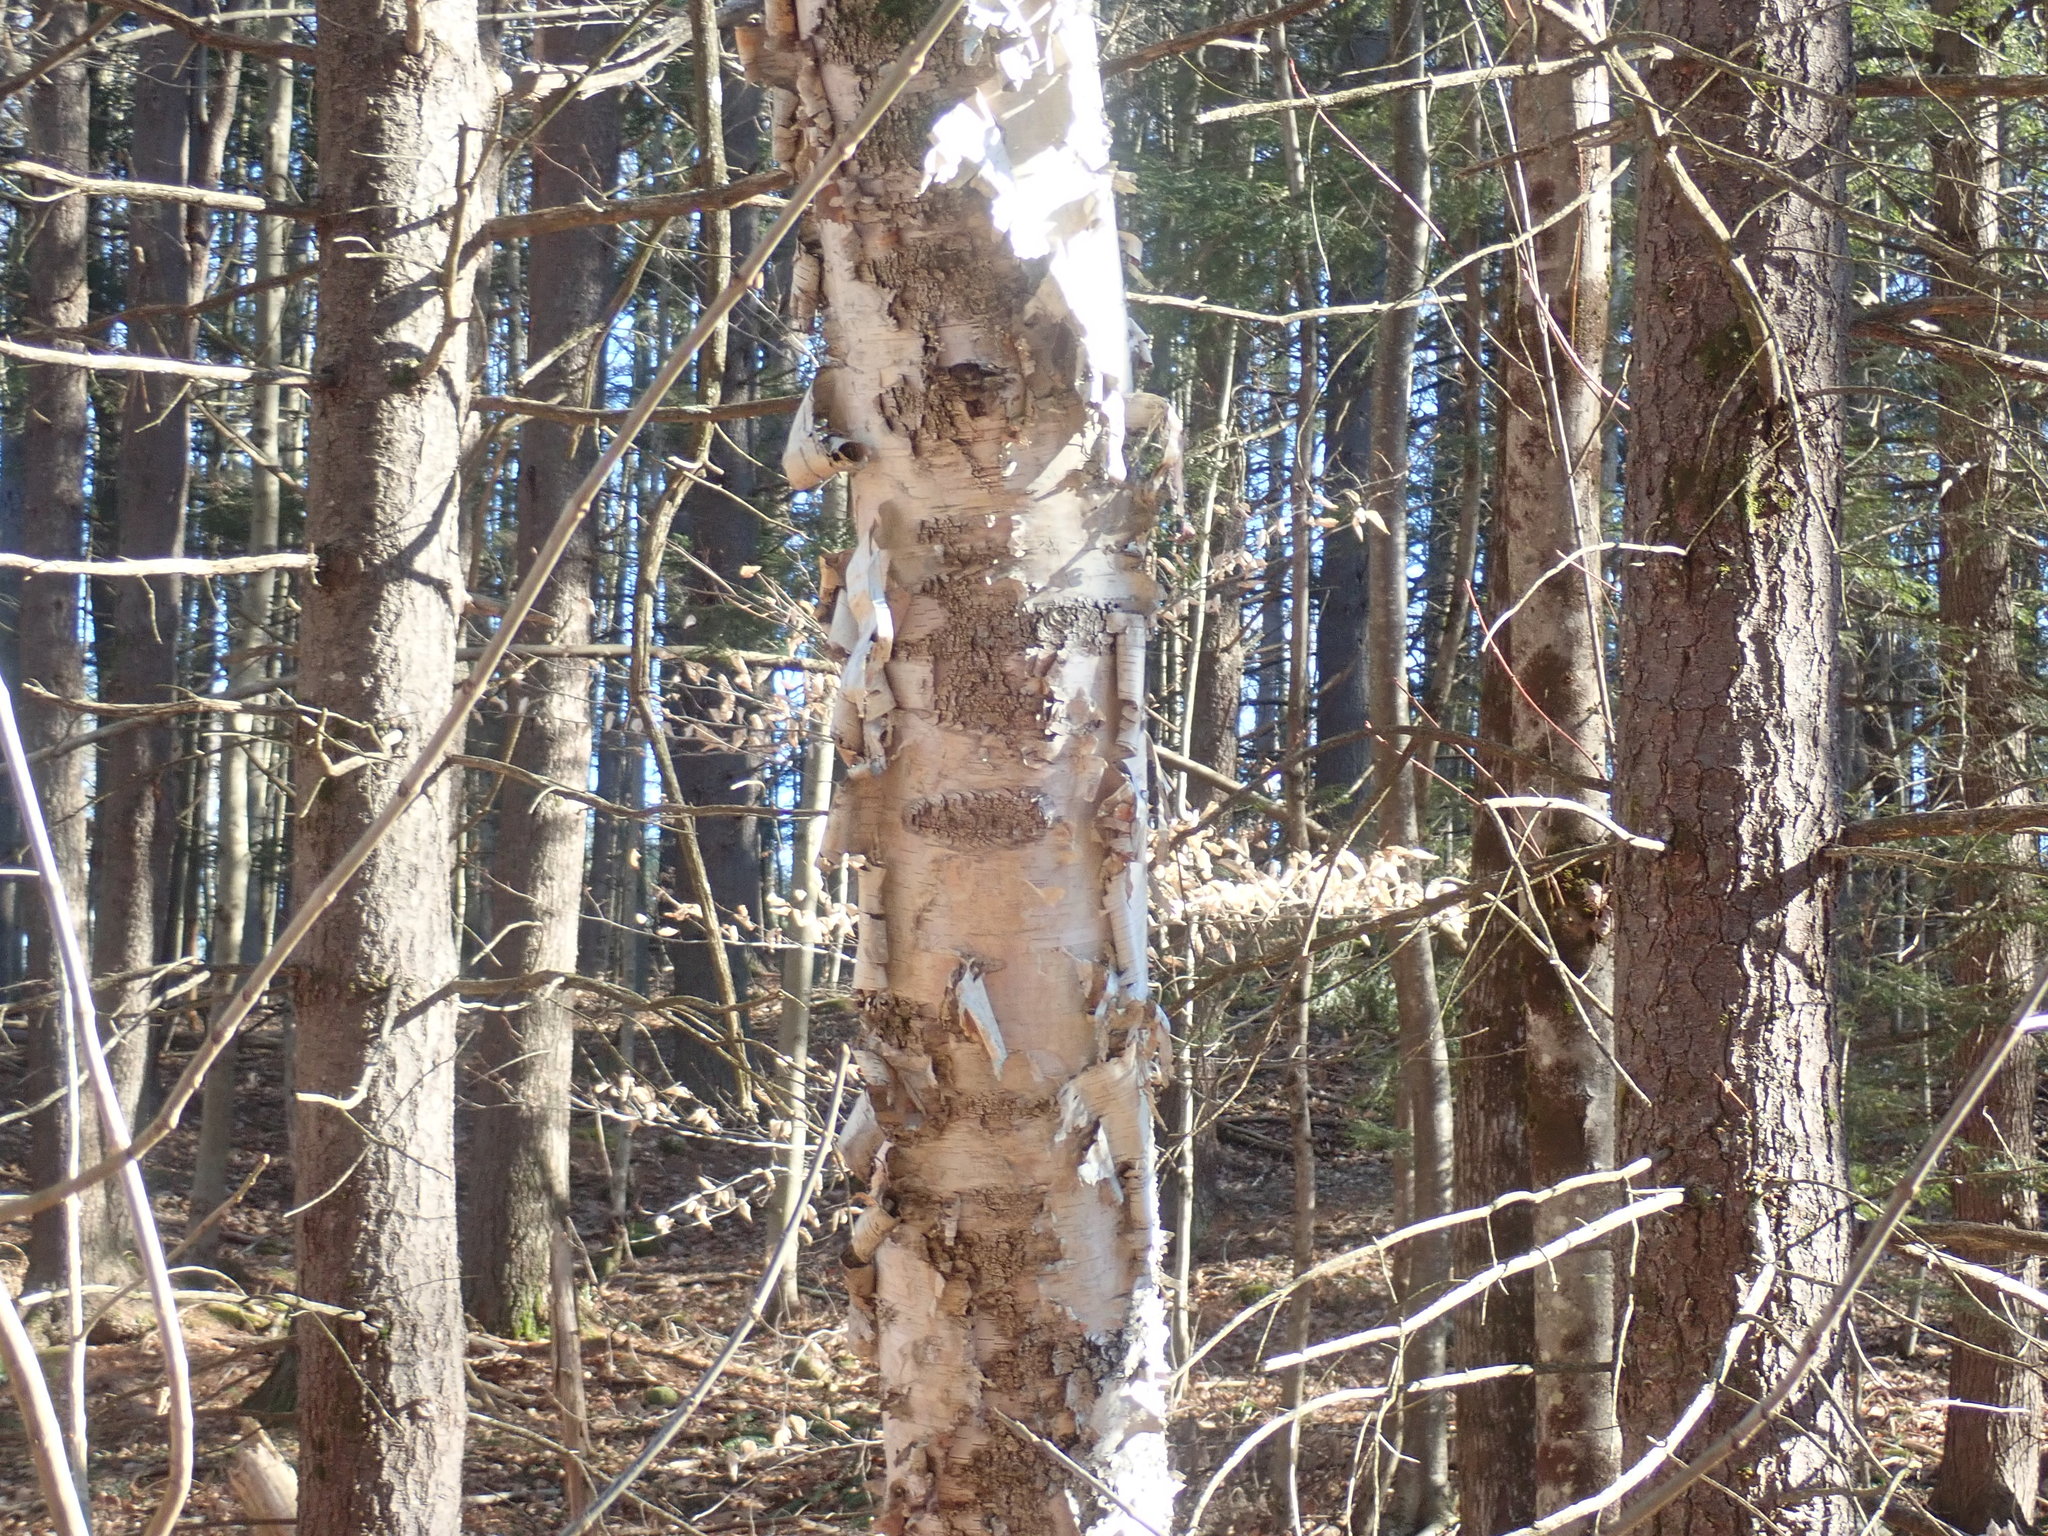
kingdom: Plantae
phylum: Tracheophyta
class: Magnoliopsida
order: Fagales
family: Betulaceae
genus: Betula
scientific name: Betula papyrifera
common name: Paper birch
